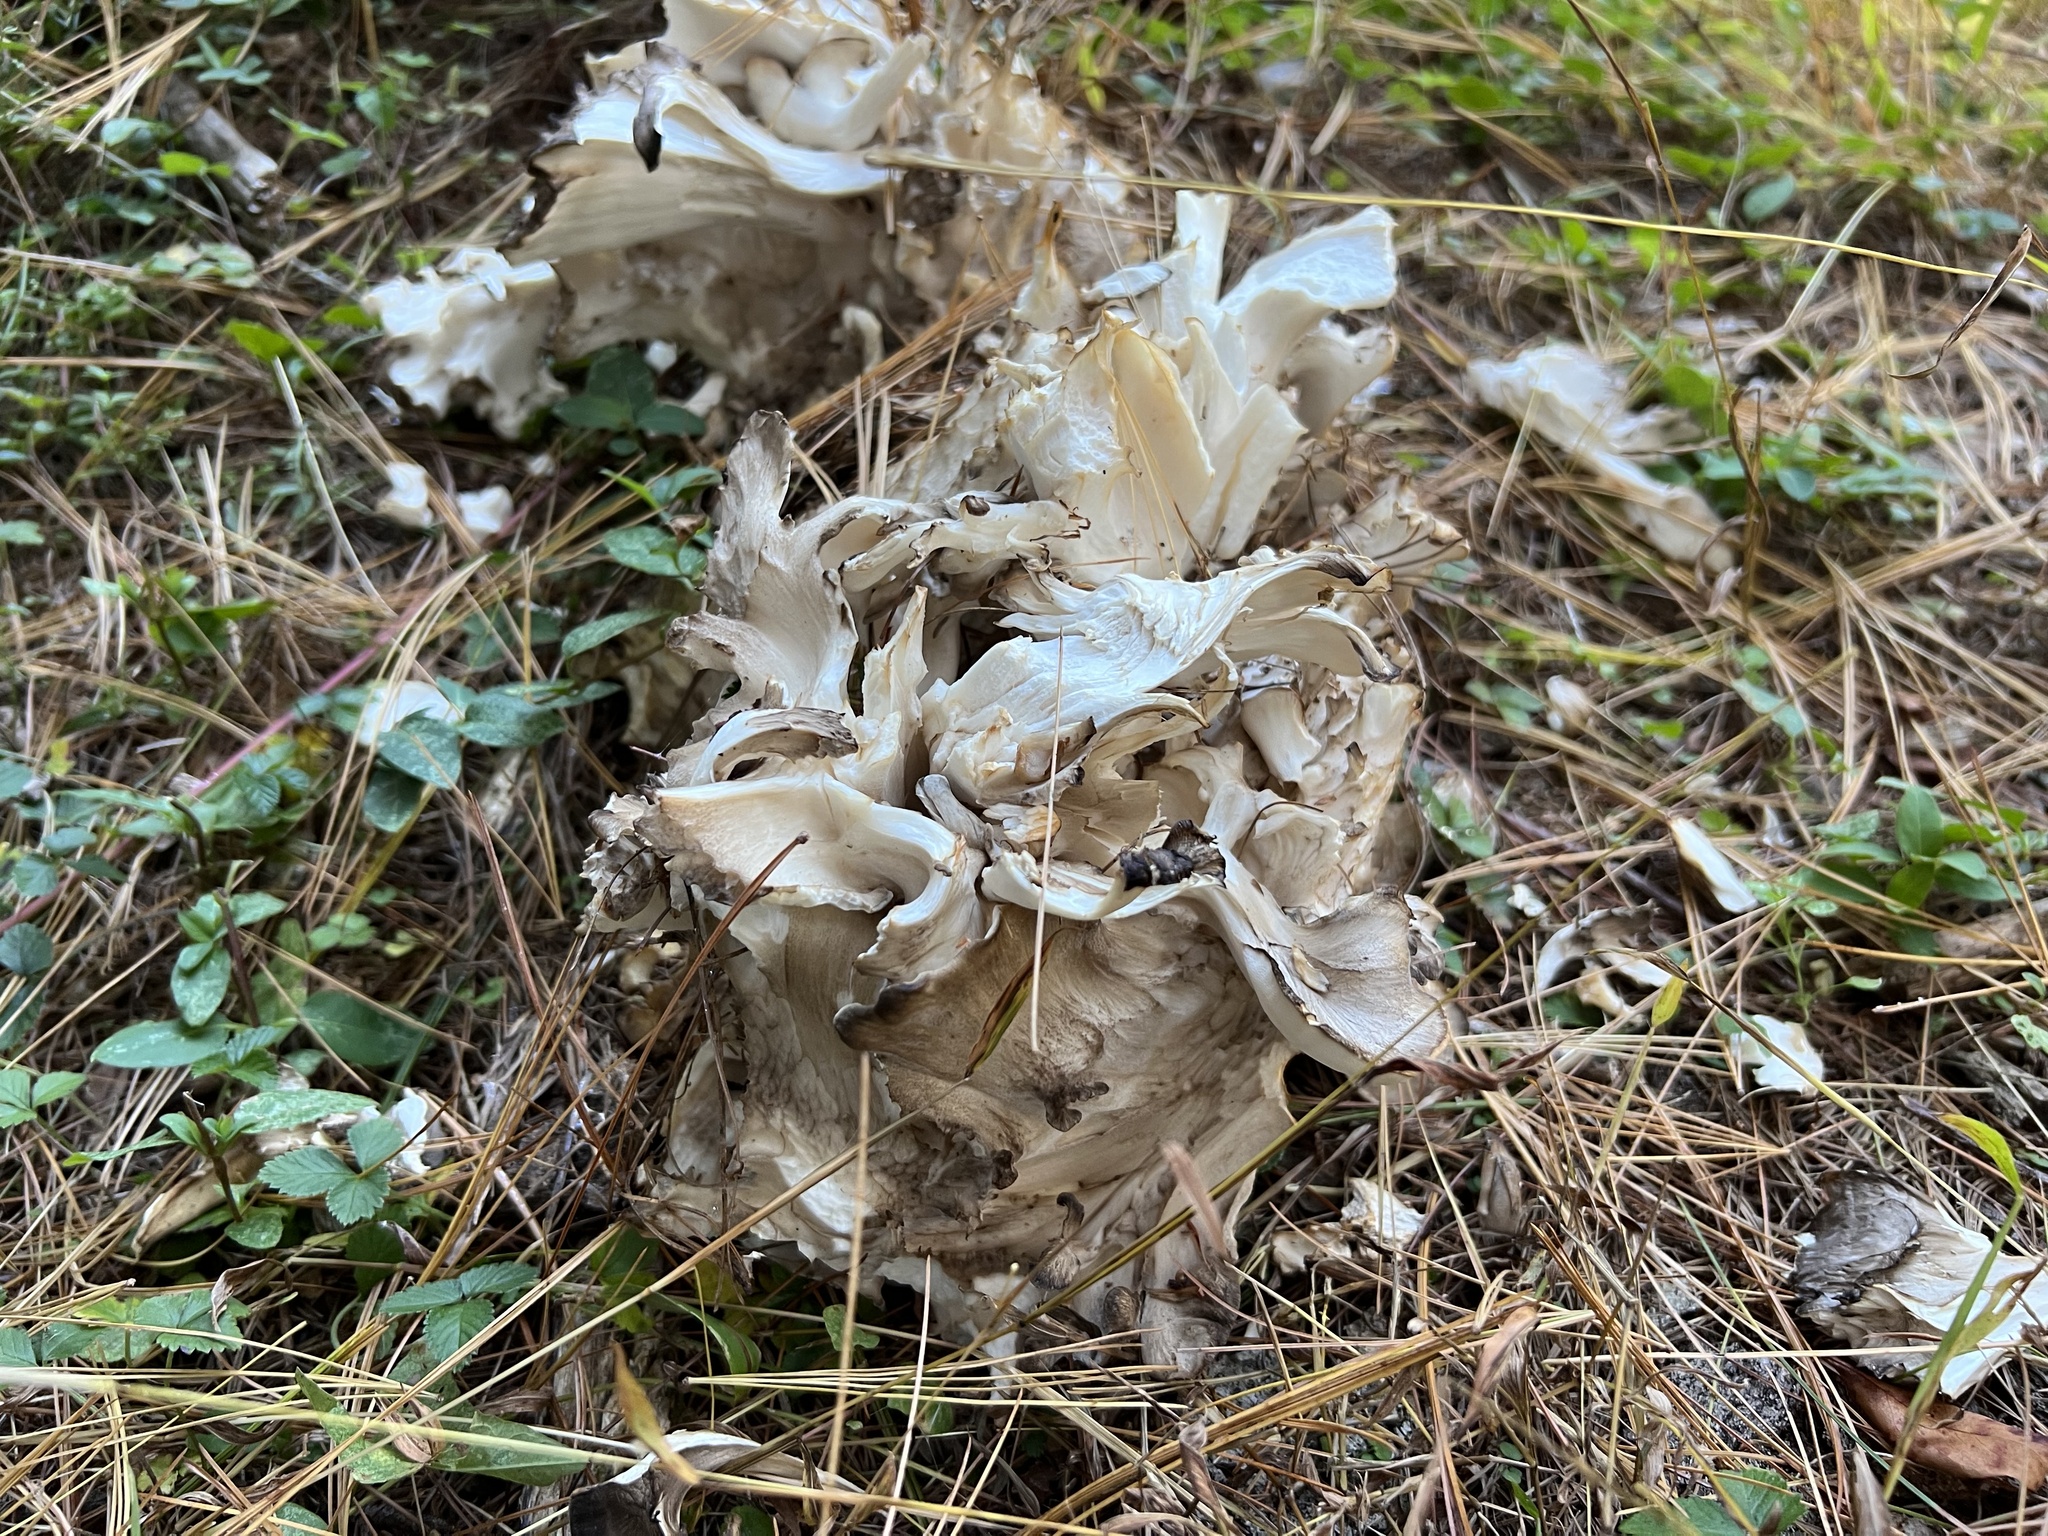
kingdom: Fungi
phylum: Basidiomycota
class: Agaricomycetes
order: Polyporales
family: Grifolaceae
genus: Grifola
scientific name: Grifola frondosa
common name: Hen of the woods
